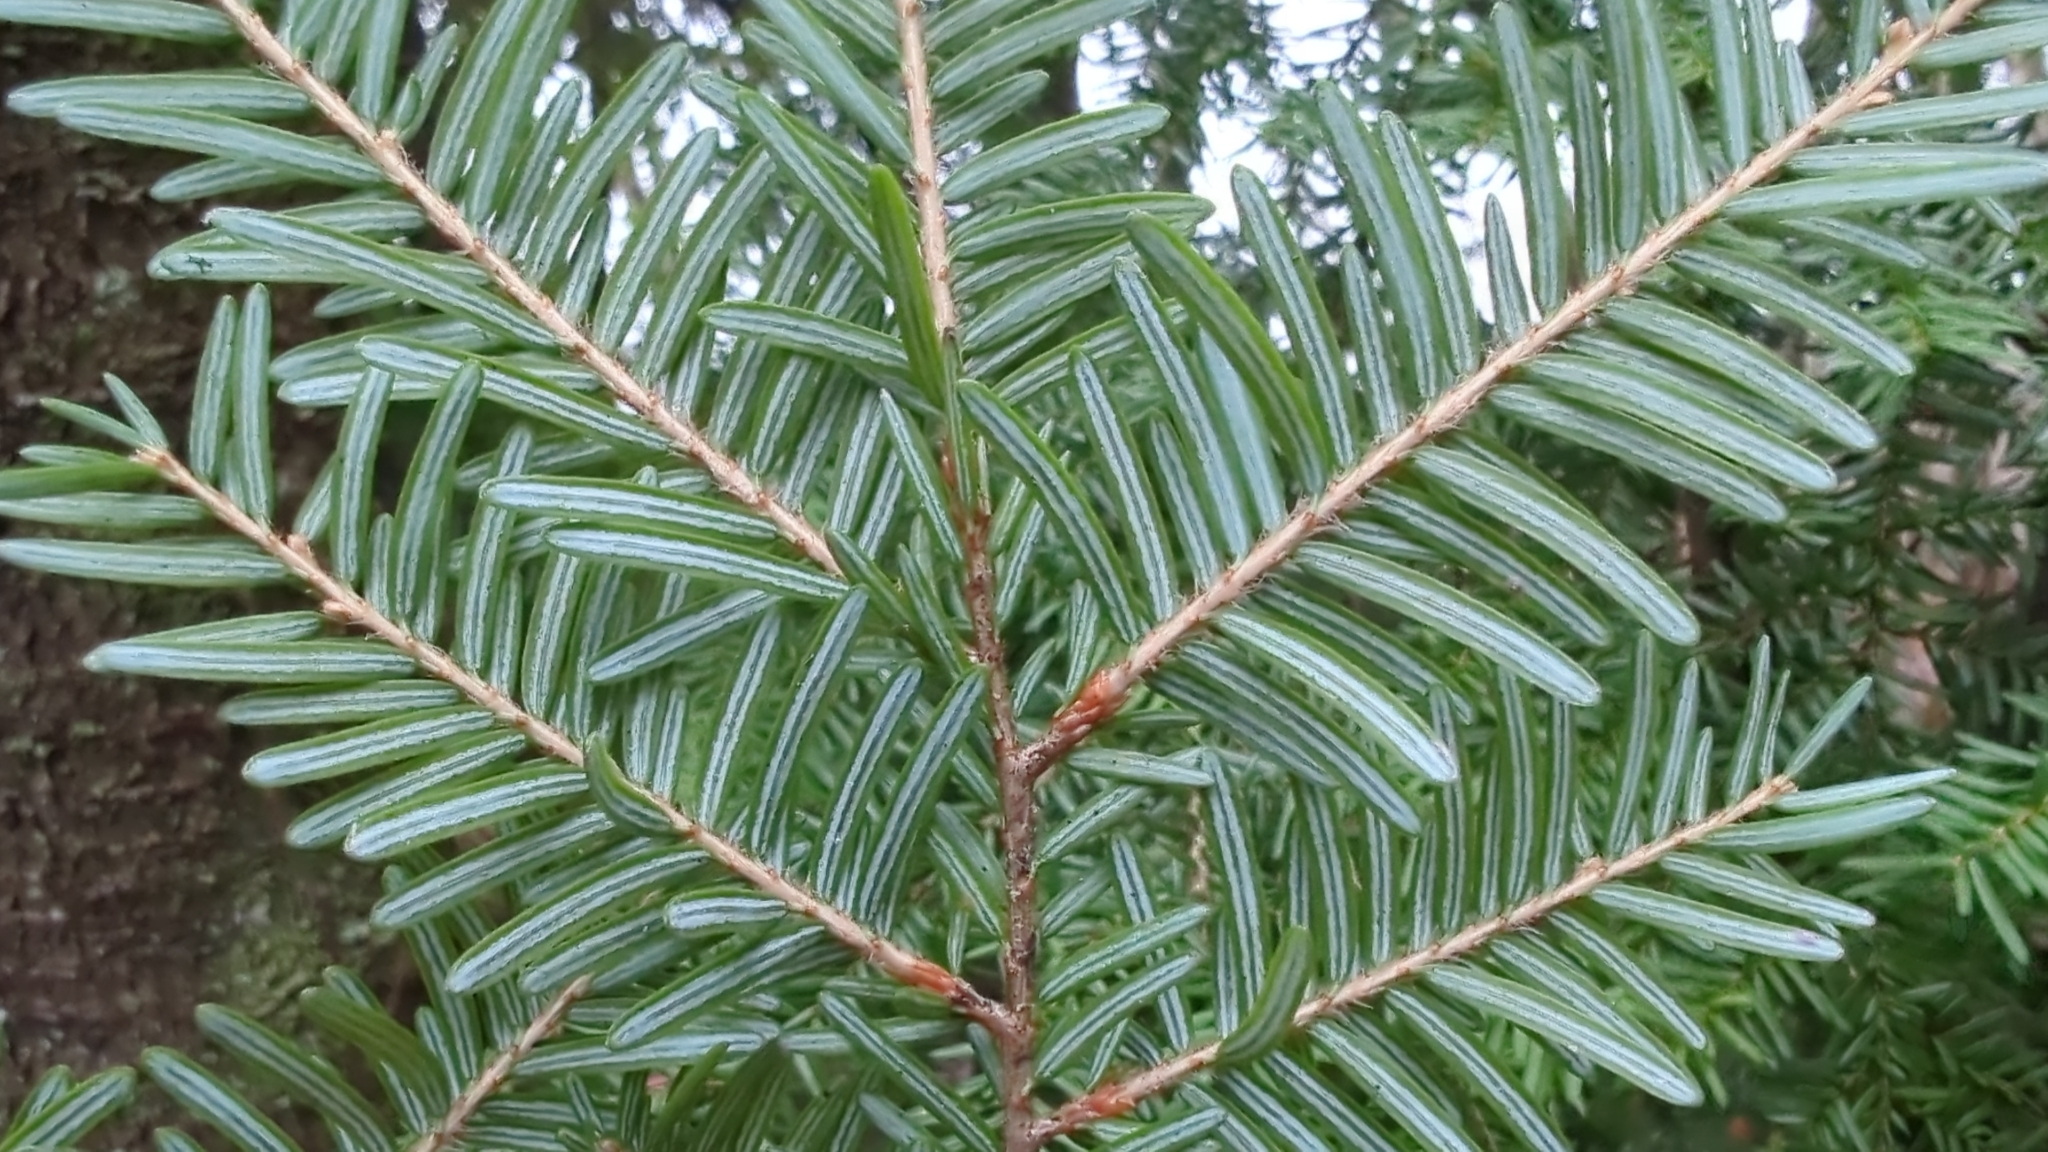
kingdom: Plantae
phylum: Tracheophyta
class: Pinopsida
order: Pinales
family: Pinaceae
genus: Tsuga
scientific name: Tsuga heterophylla
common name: Western hemlock
